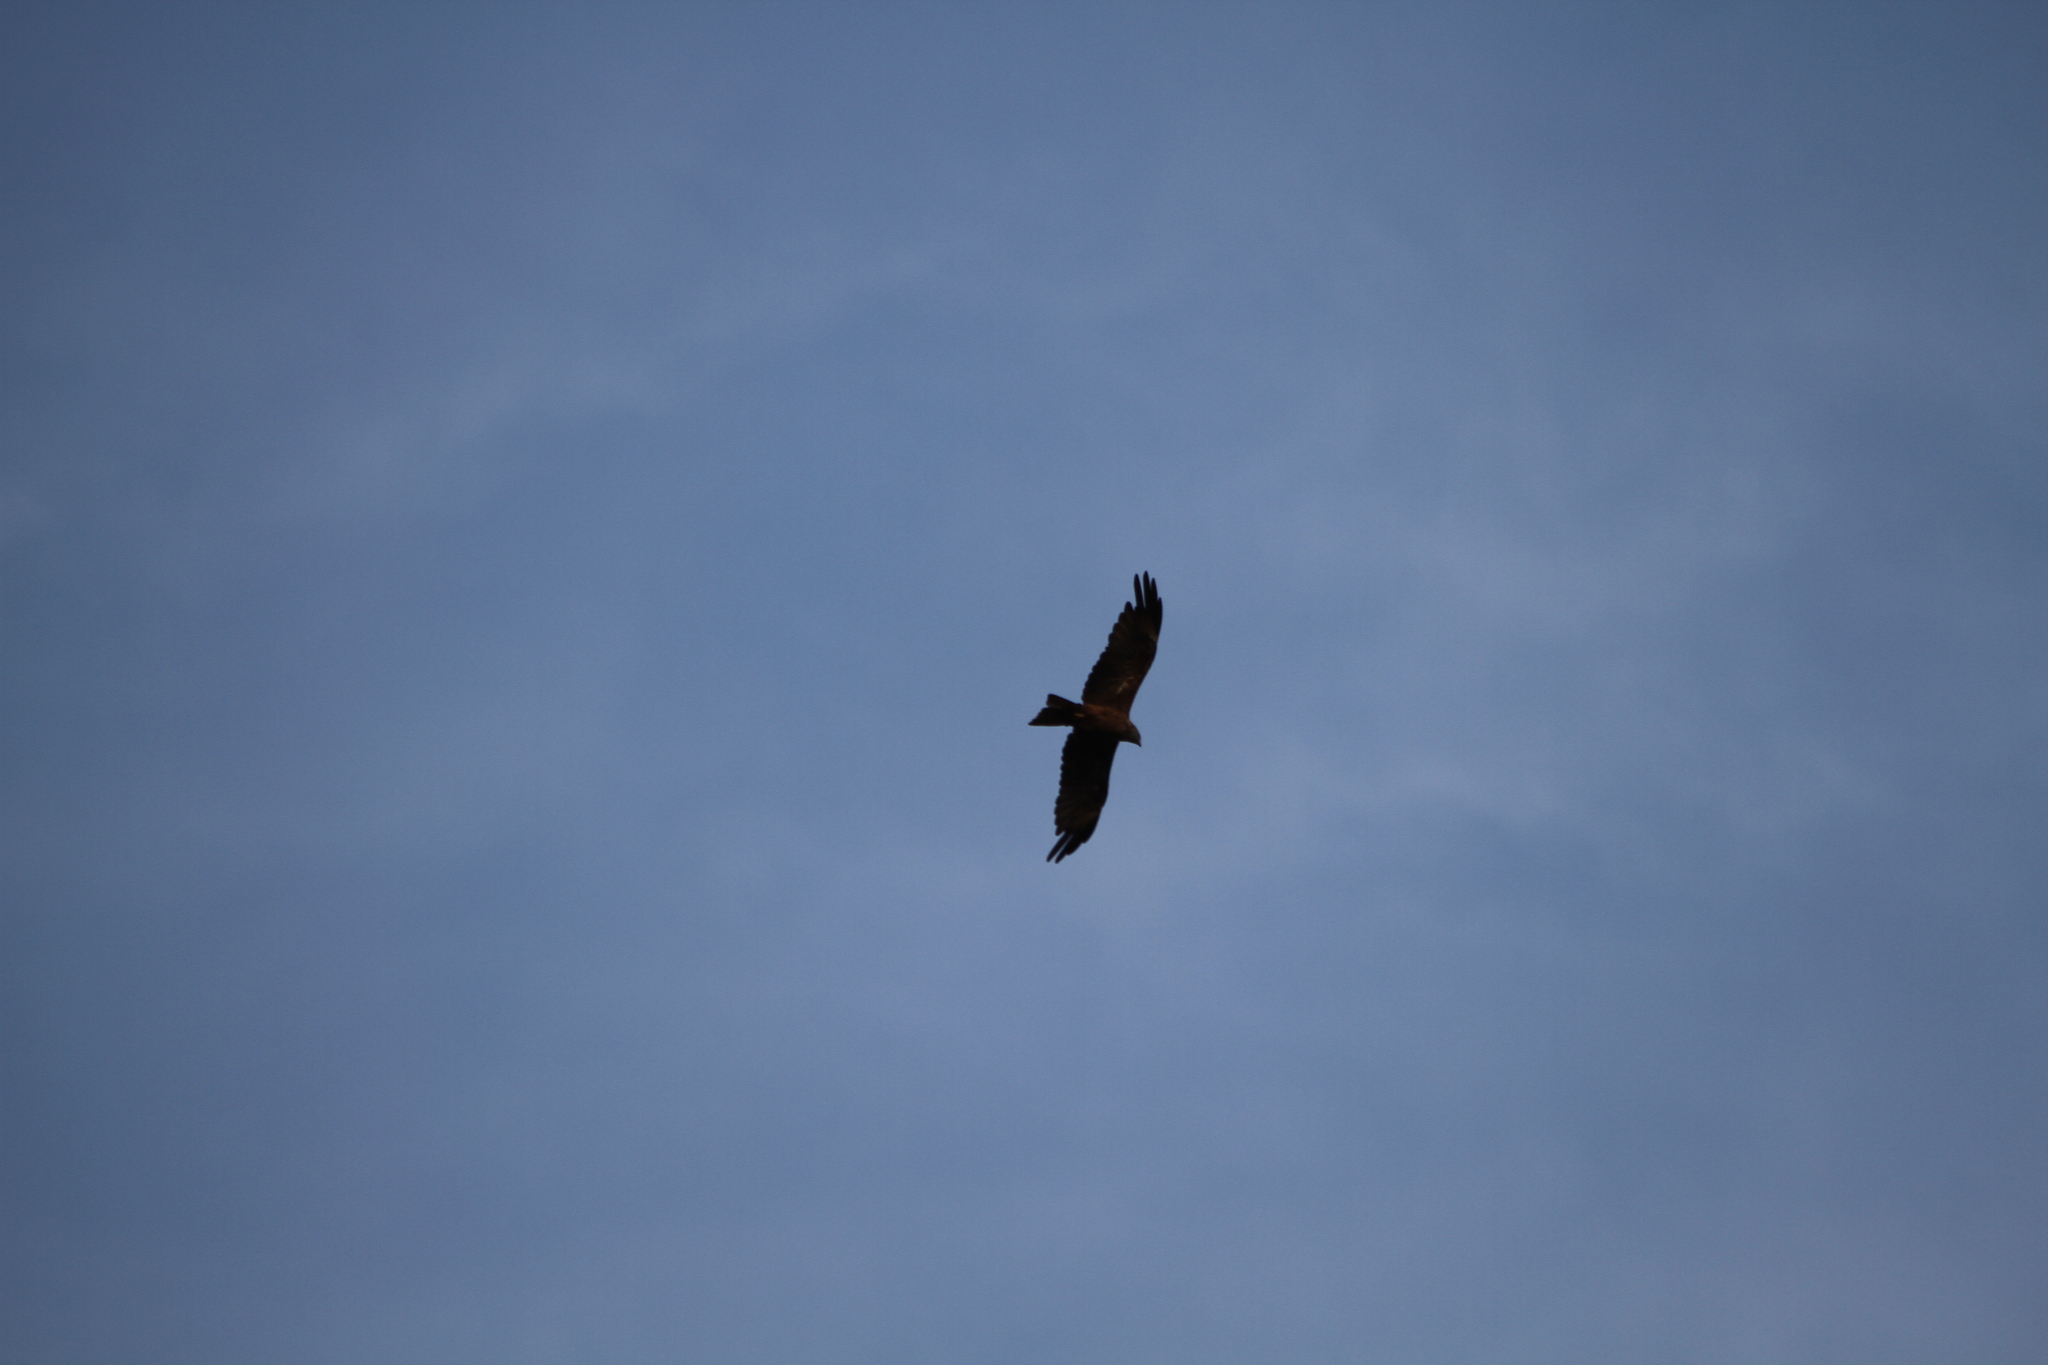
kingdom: Animalia
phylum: Chordata
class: Aves
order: Accipitriformes
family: Accipitridae
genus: Milvus
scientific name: Milvus migrans
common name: Black kite
